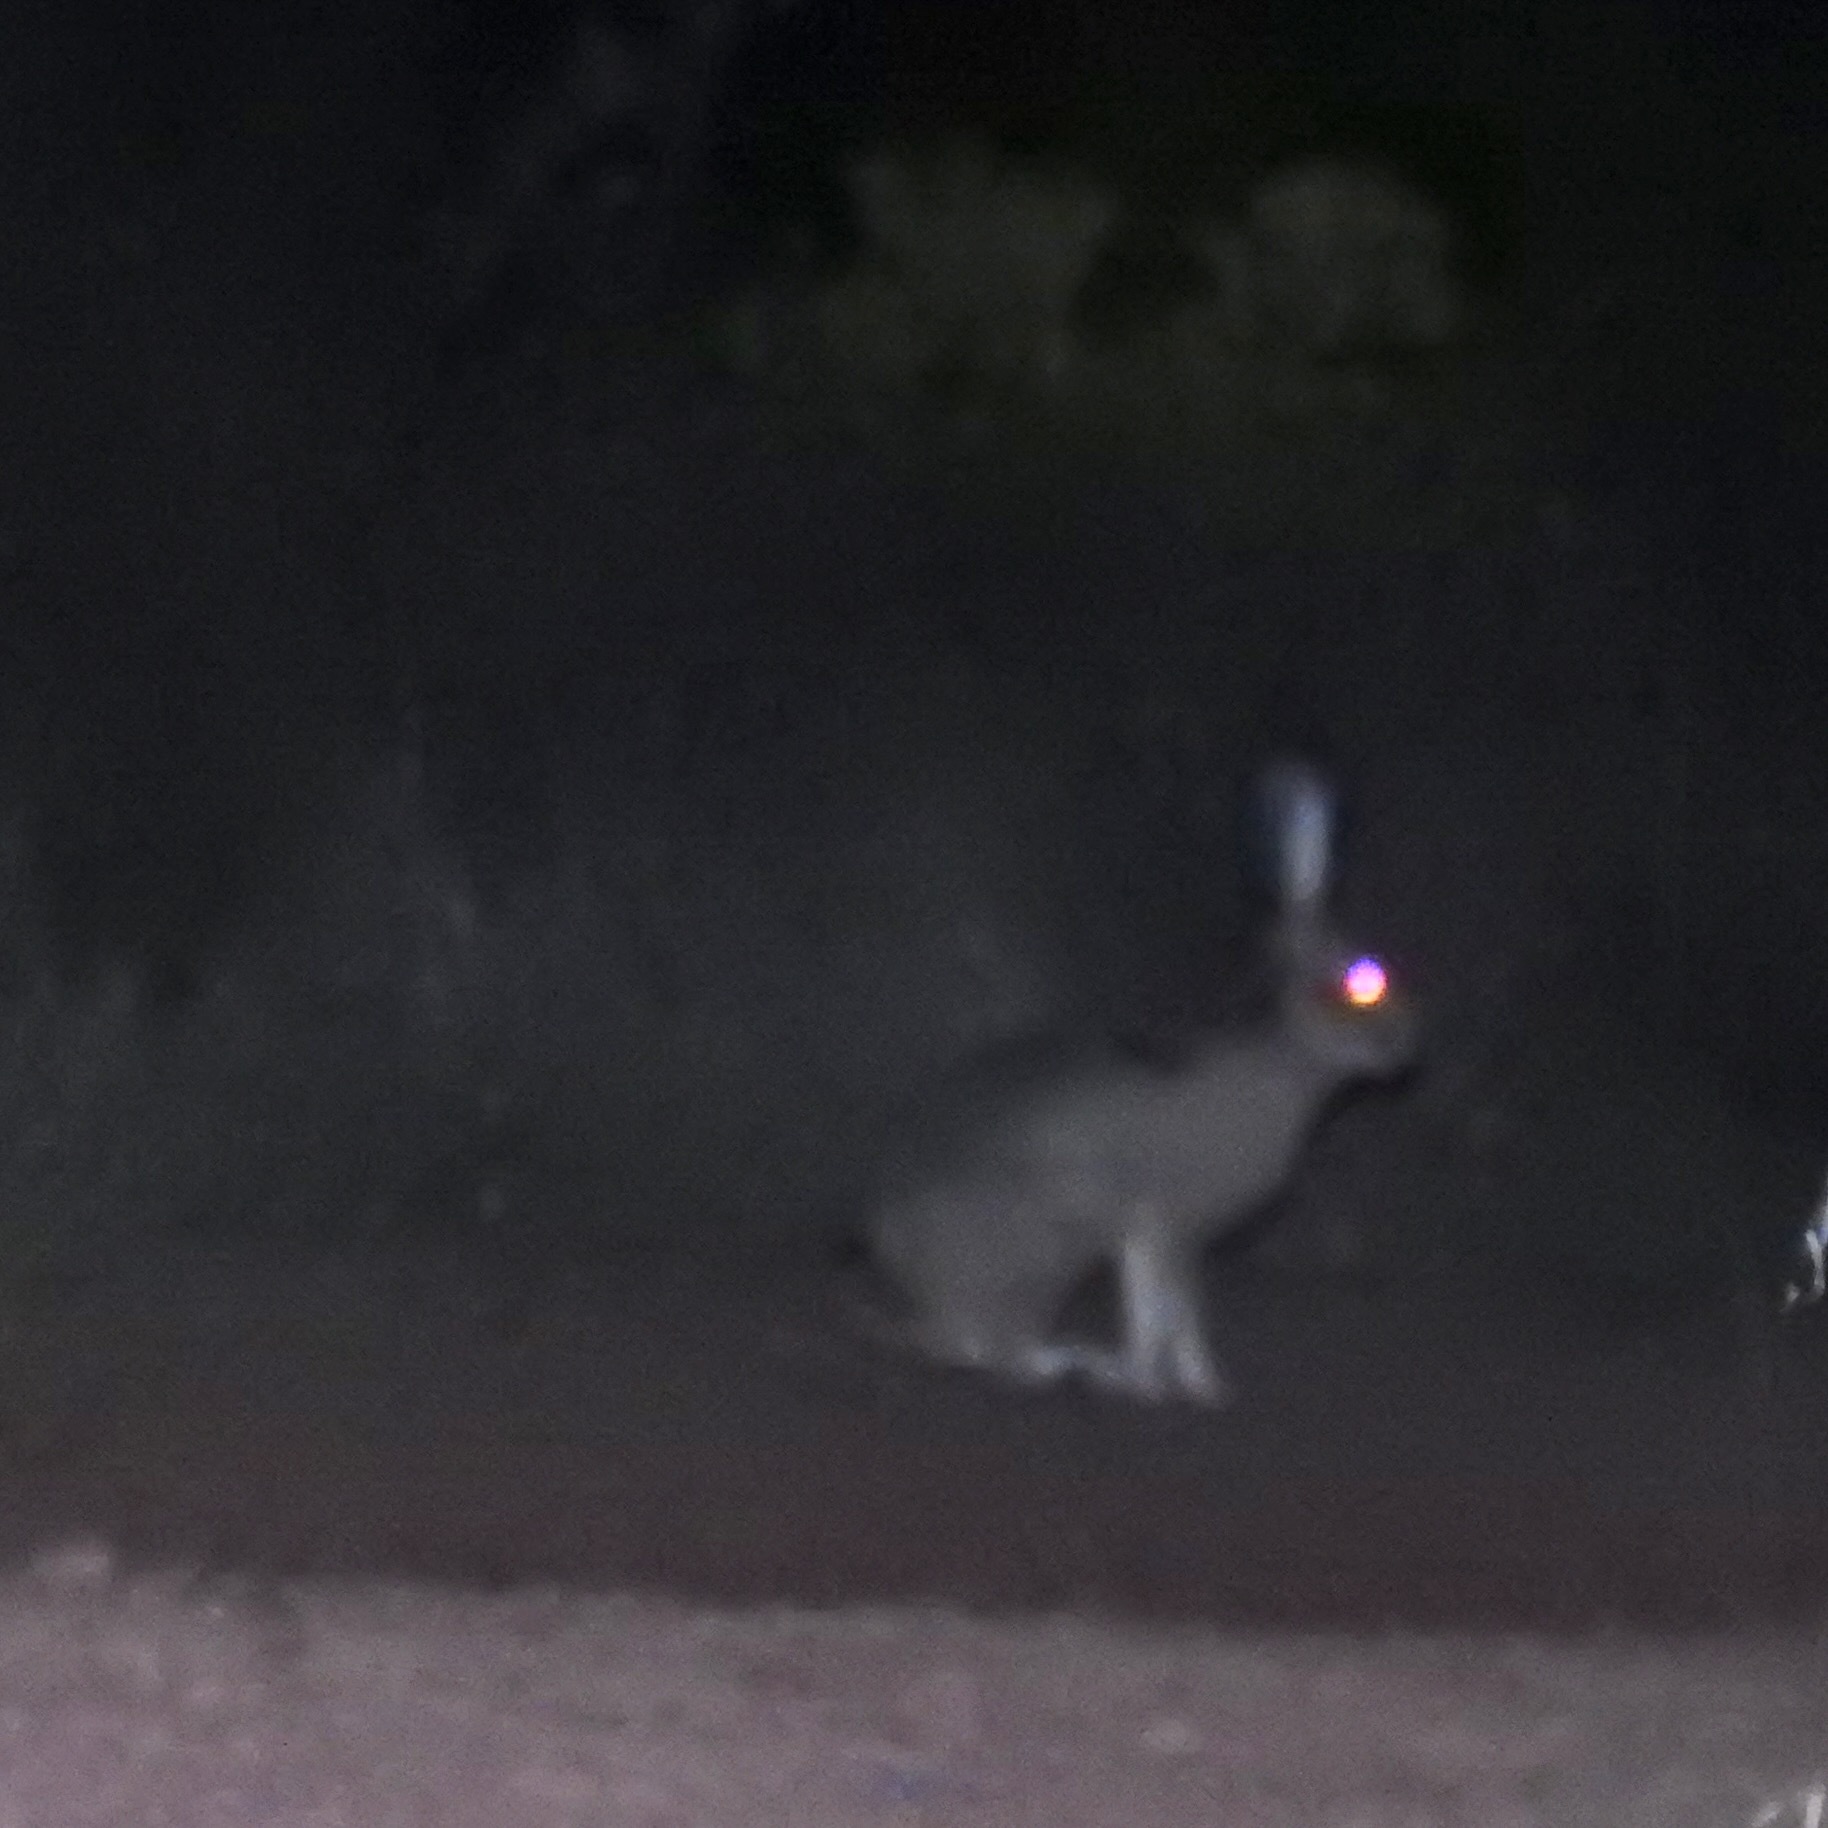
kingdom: Animalia
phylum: Chordata
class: Mammalia
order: Lagomorpha
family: Leporidae
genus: Lepus
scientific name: Lepus californicus
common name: Black-tailed jackrabbit
